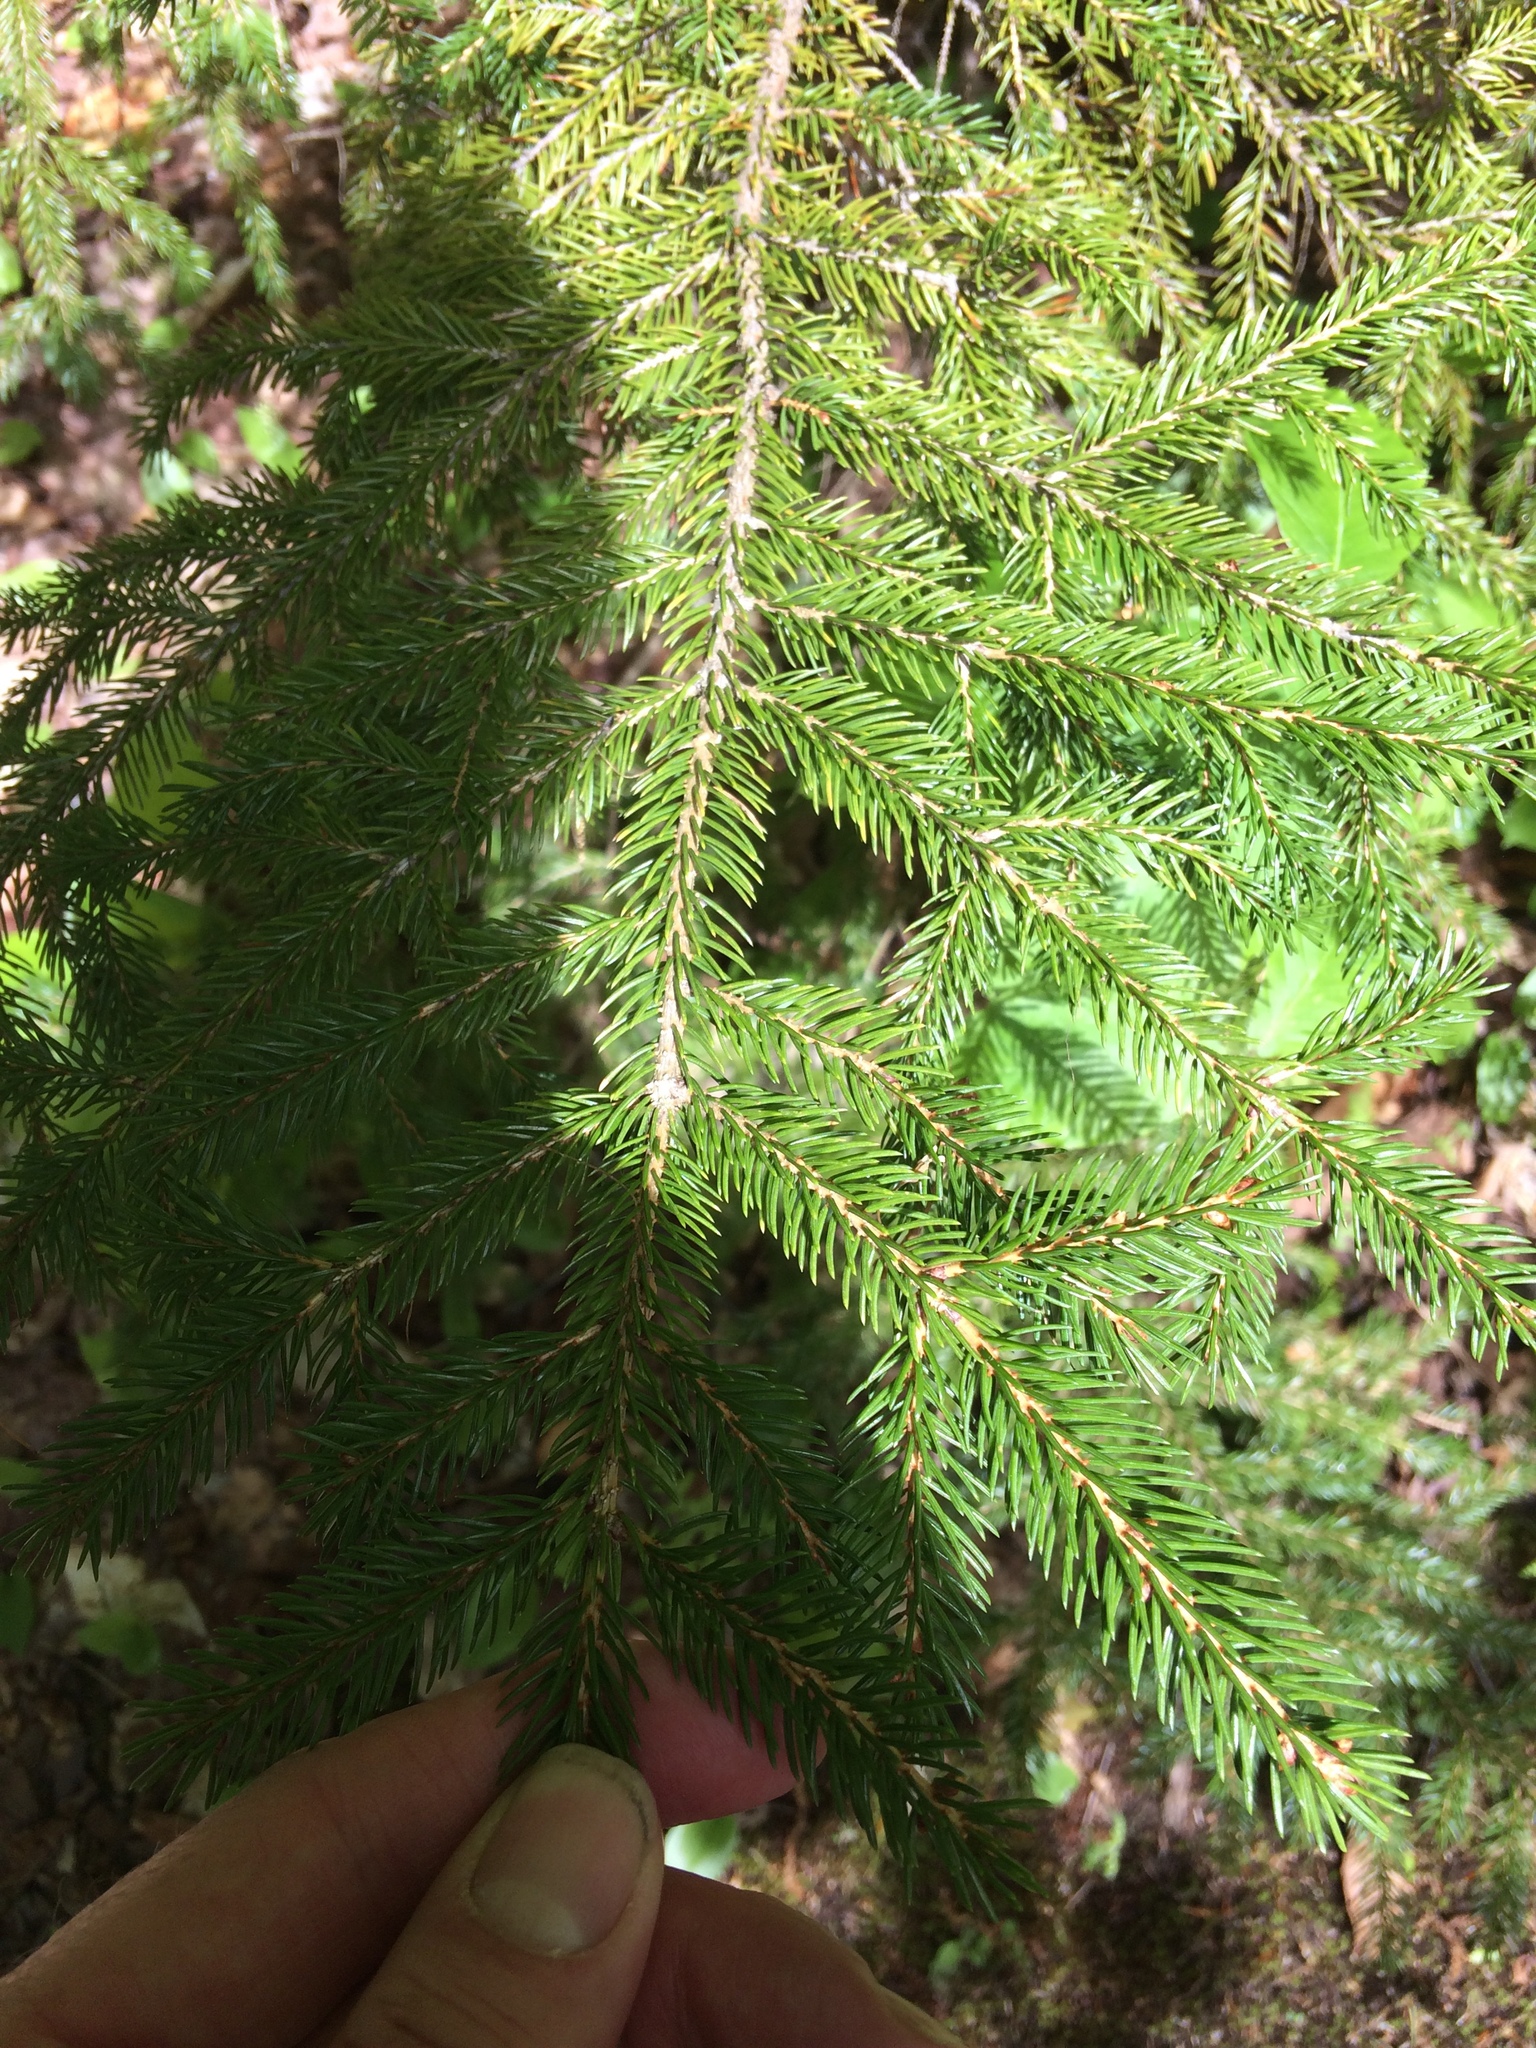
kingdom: Plantae
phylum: Tracheophyta
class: Pinopsida
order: Pinales
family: Pinaceae
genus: Picea
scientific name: Picea rubens
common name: Red spruce
